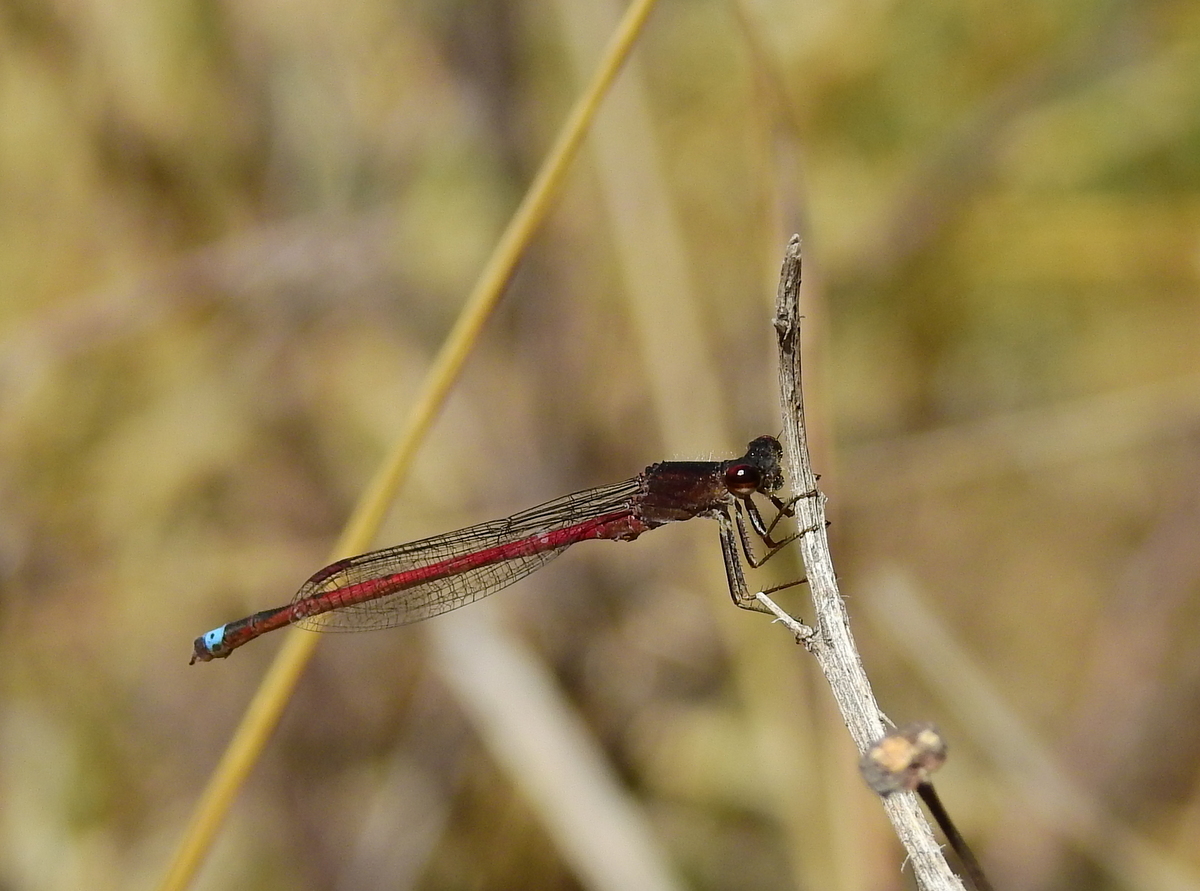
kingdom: Animalia
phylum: Arthropoda
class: Insecta
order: Odonata
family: Coenagrionidae
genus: Oxyagrion
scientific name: Oxyagrion rubidum
